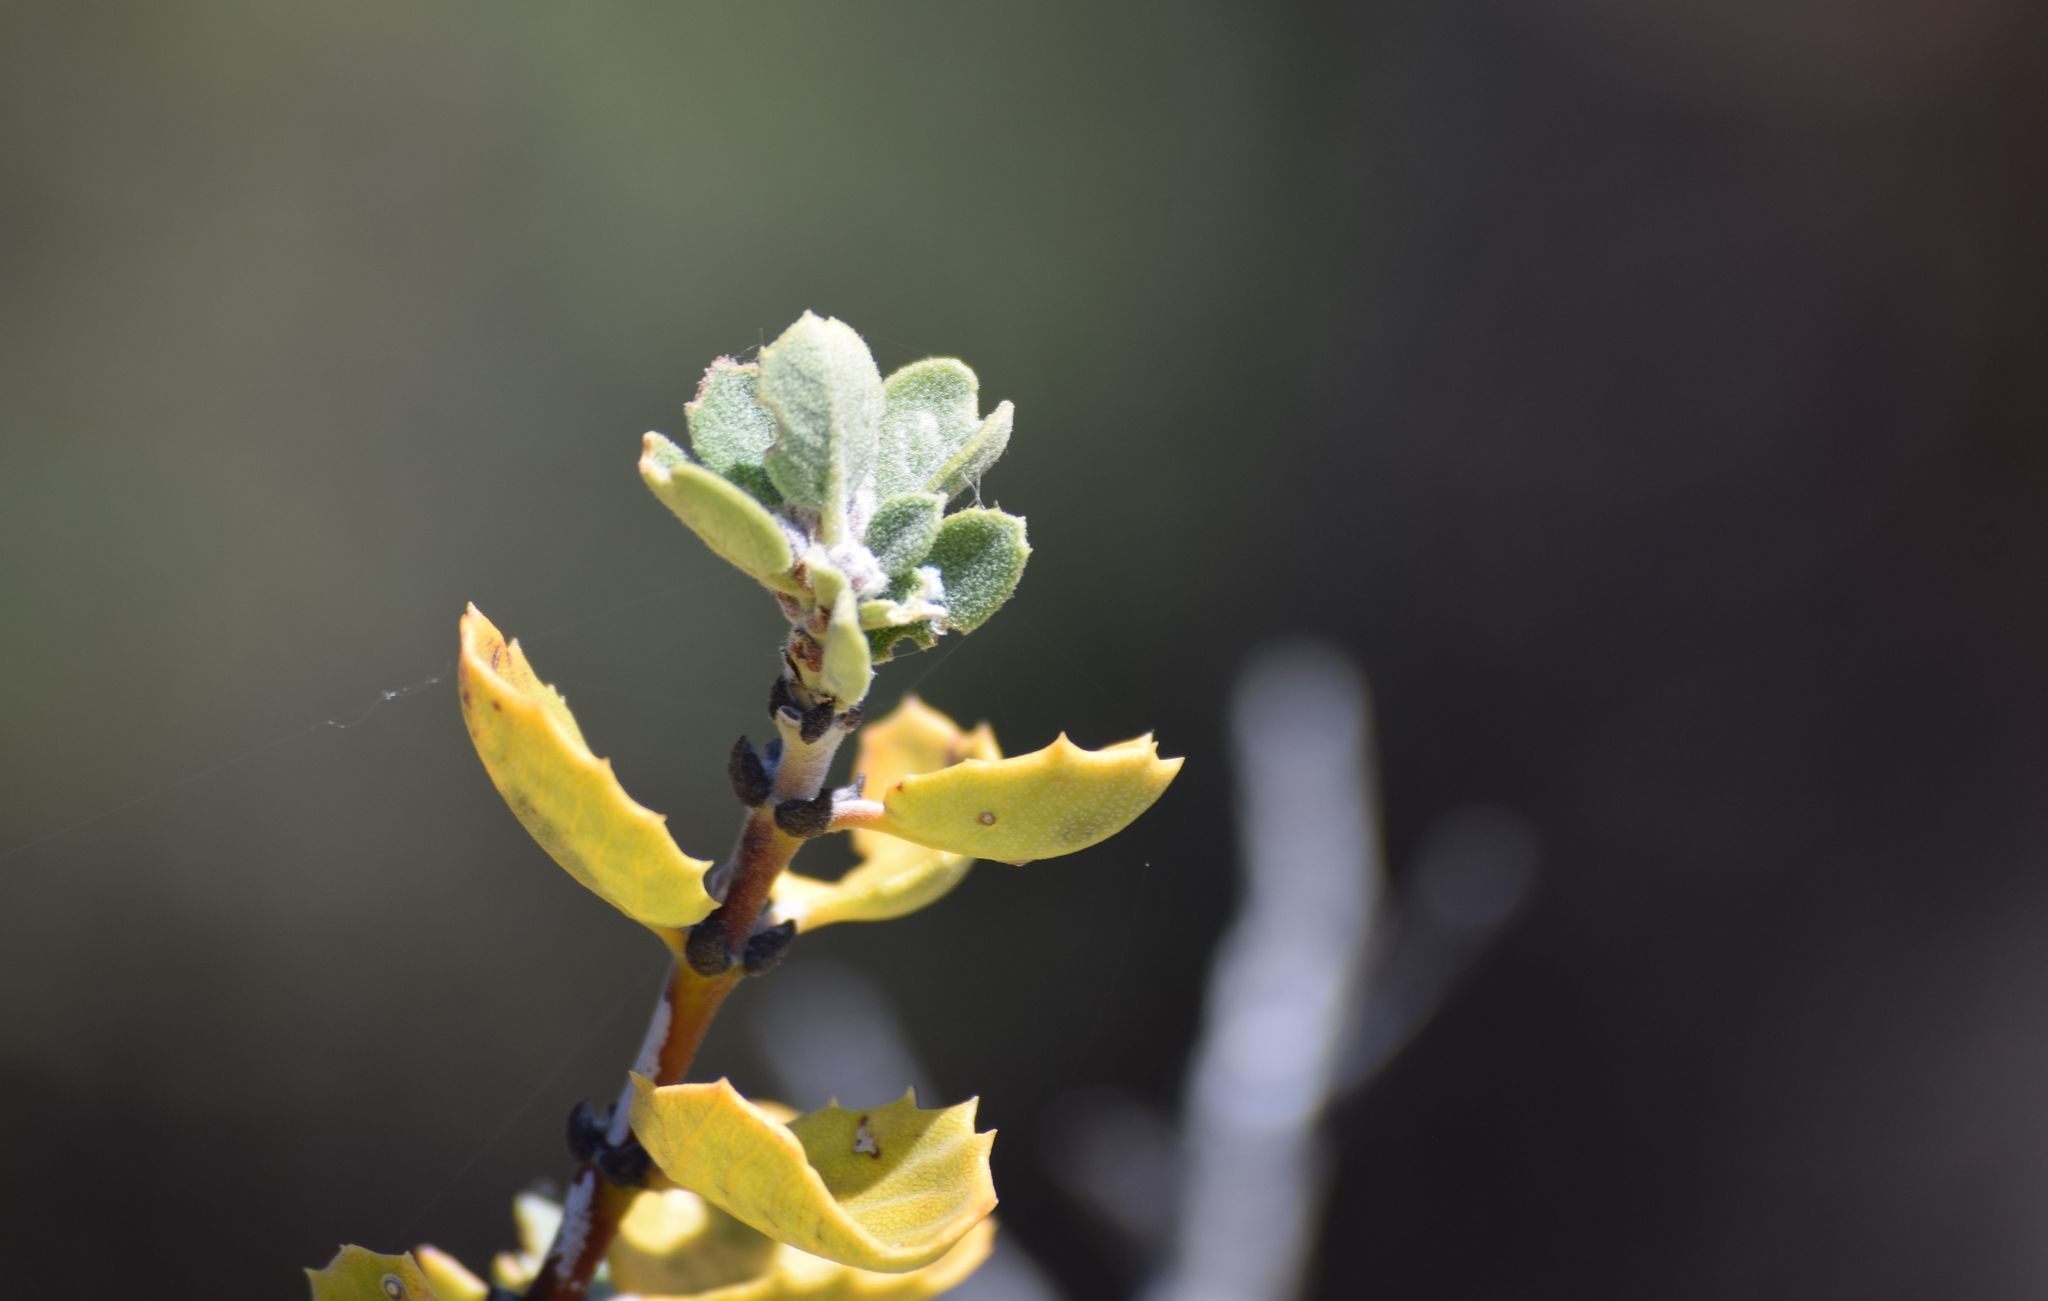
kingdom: Plantae
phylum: Tracheophyta
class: Magnoliopsida
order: Rosales
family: Rhamnaceae
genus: Ceanothus
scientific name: Ceanothus perplexans
